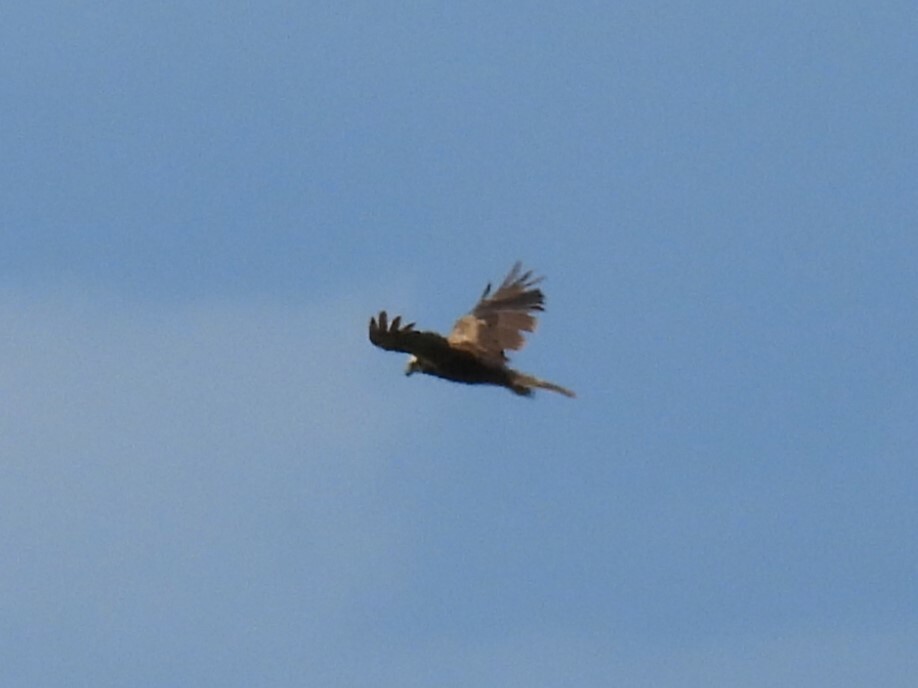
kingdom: Animalia
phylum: Chordata
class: Aves
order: Accipitriformes
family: Accipitridae
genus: Circus
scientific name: Circus aeruginosus
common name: Western marsh harrier
